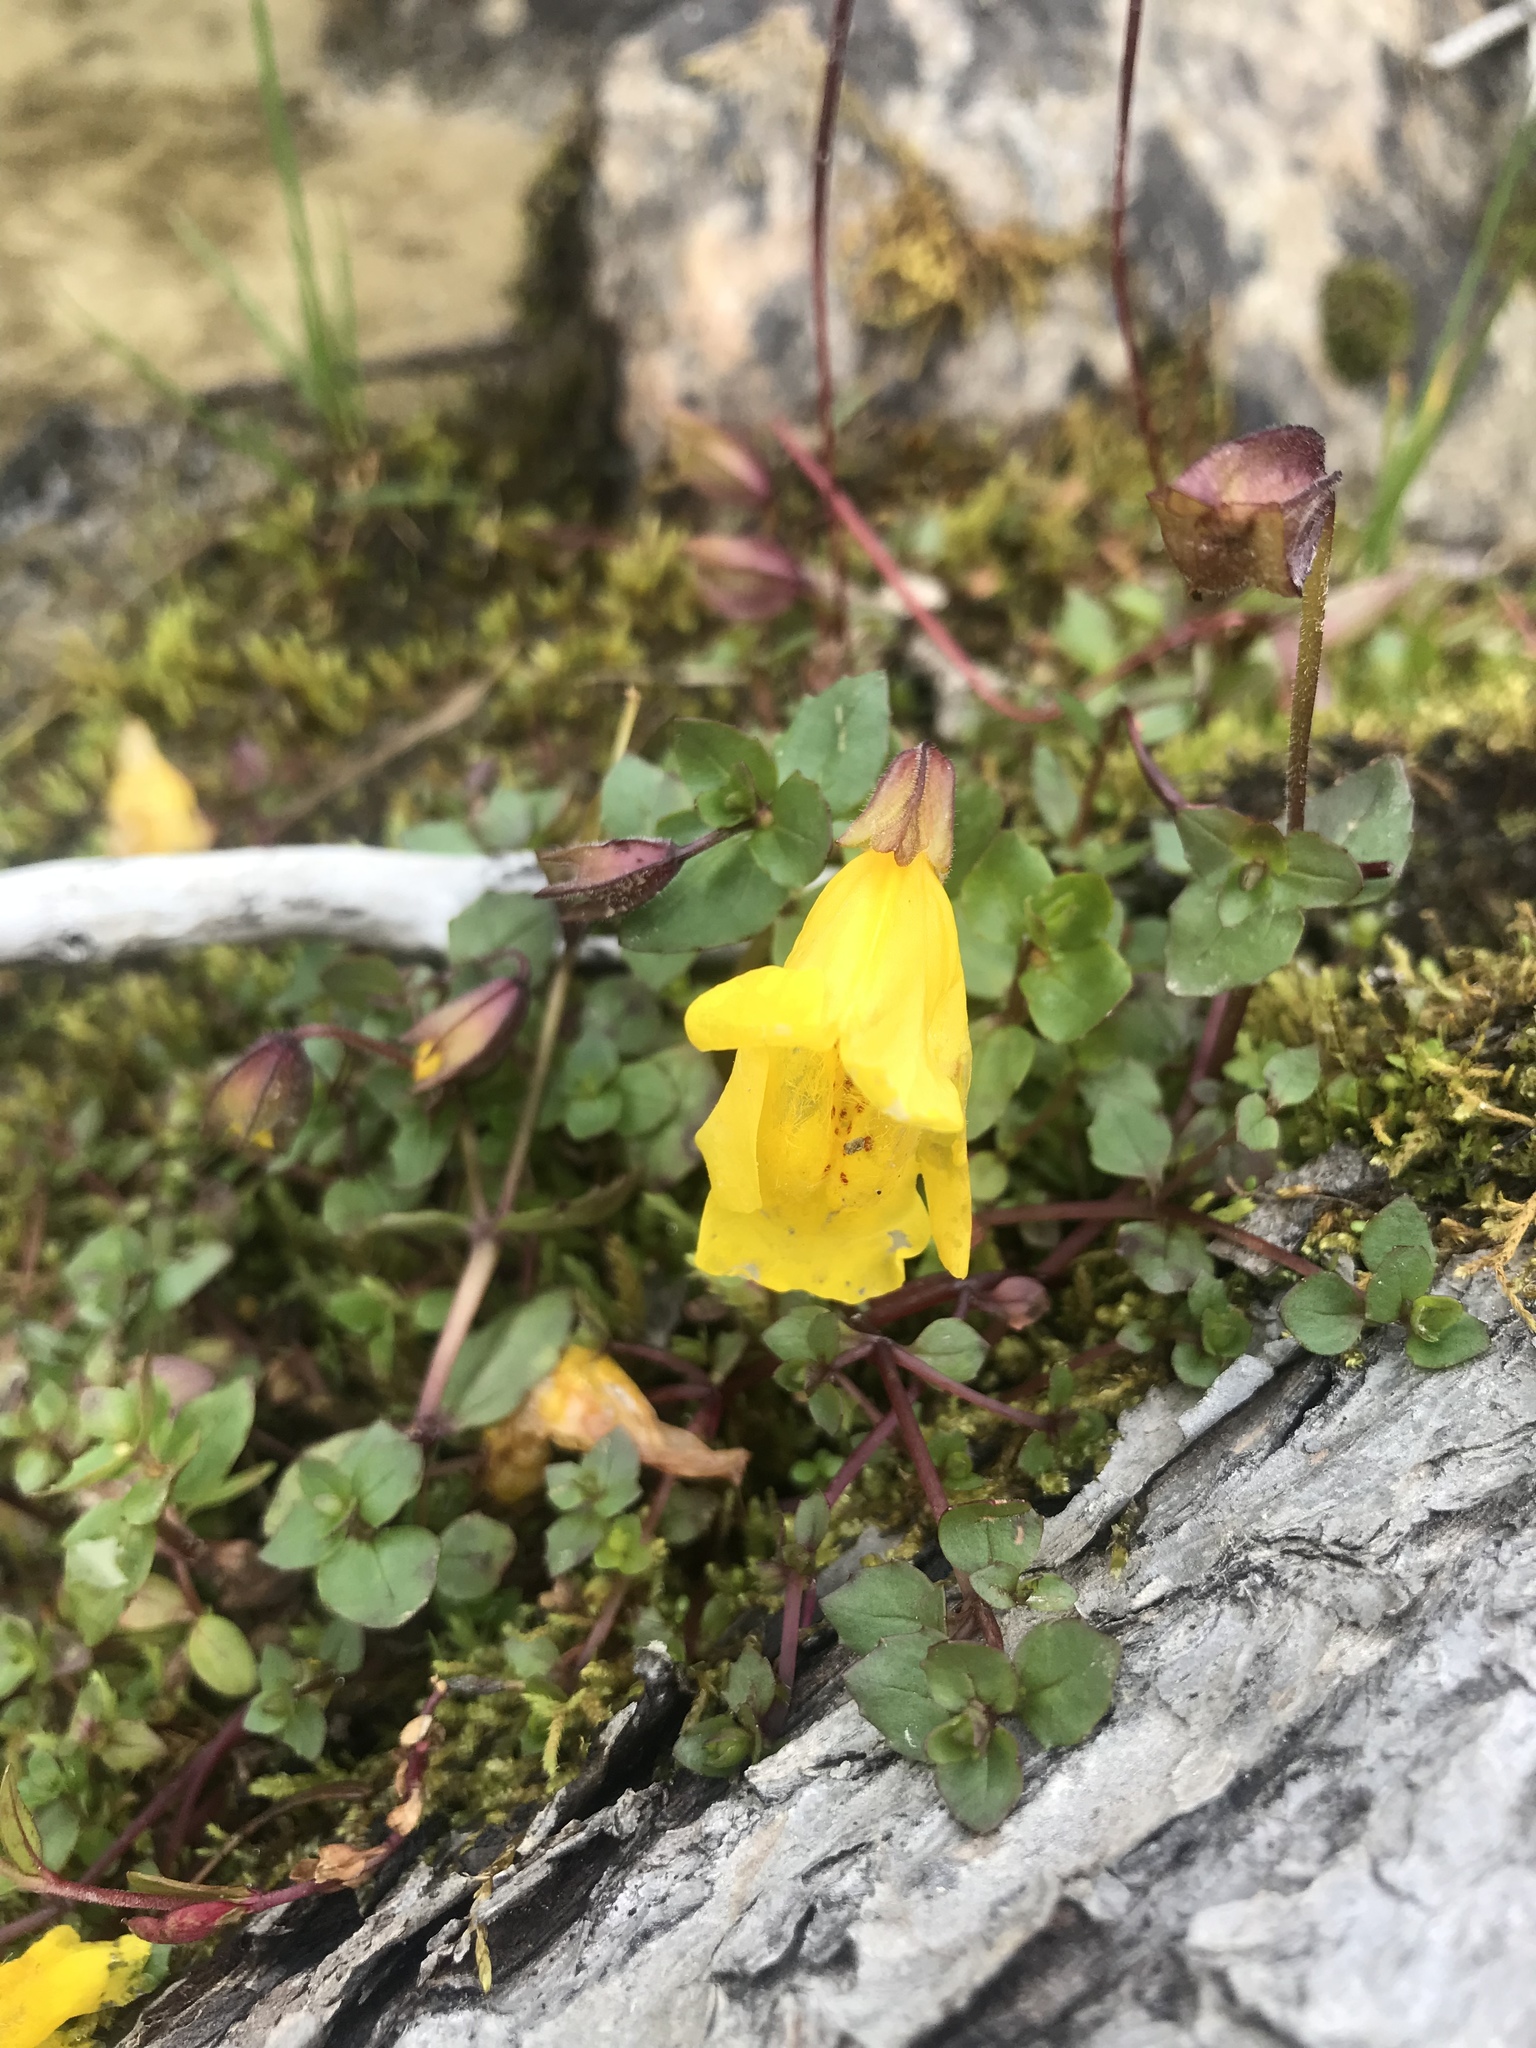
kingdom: Plantae
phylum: Tracheophyta
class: Magnoliopsida
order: Lamiales
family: Phrymaceae
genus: Erythranthe
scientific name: Erythranthe guttata
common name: Monkeyflower
